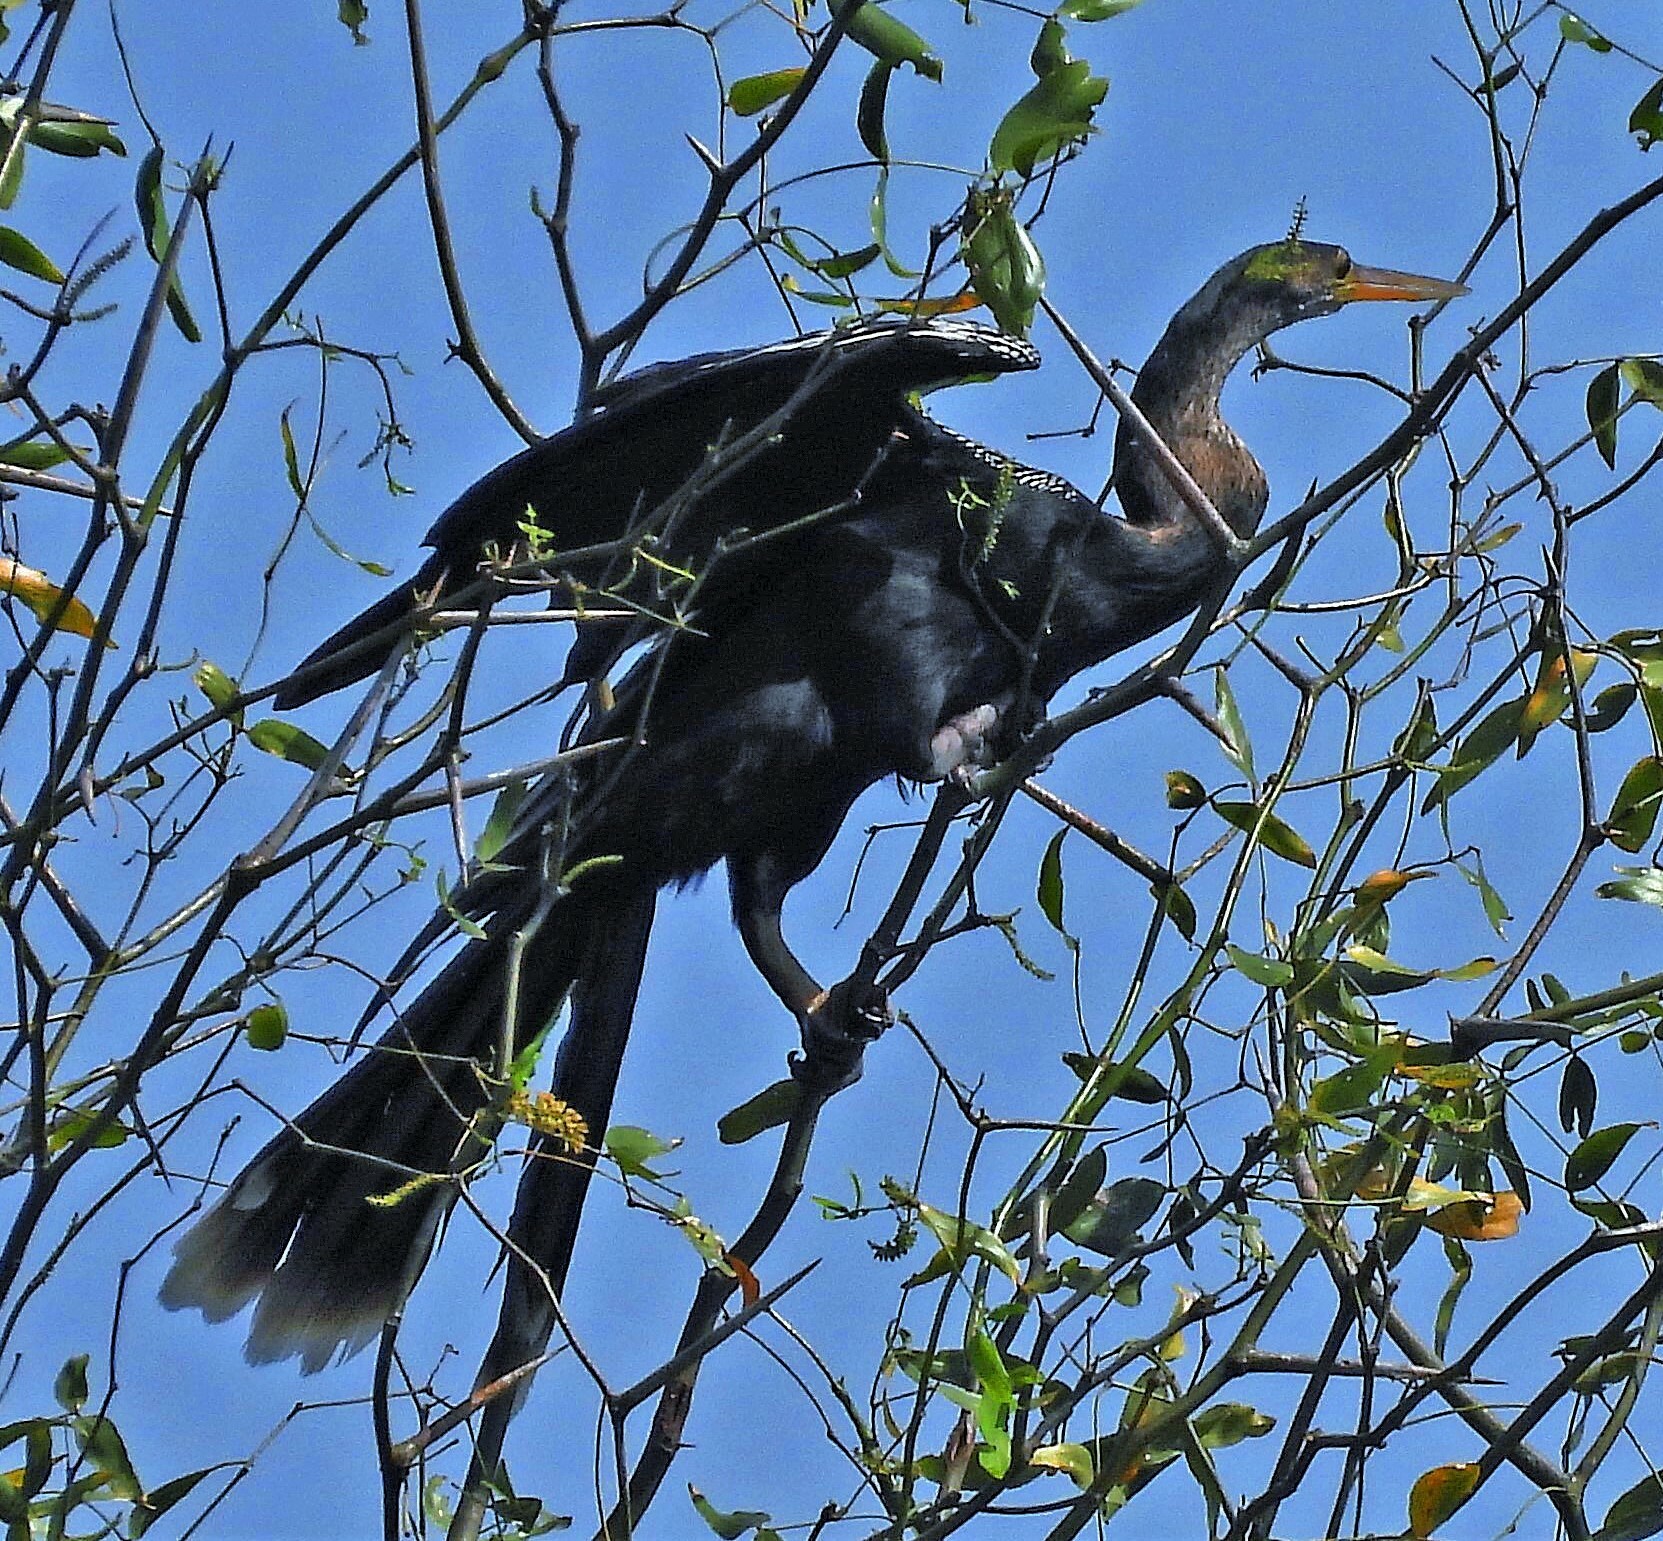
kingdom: Animalia
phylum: Chordata
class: Aves
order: Suliformes
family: Anhingidae
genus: Anhinga
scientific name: Anhinga anhinga
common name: Anhinga
